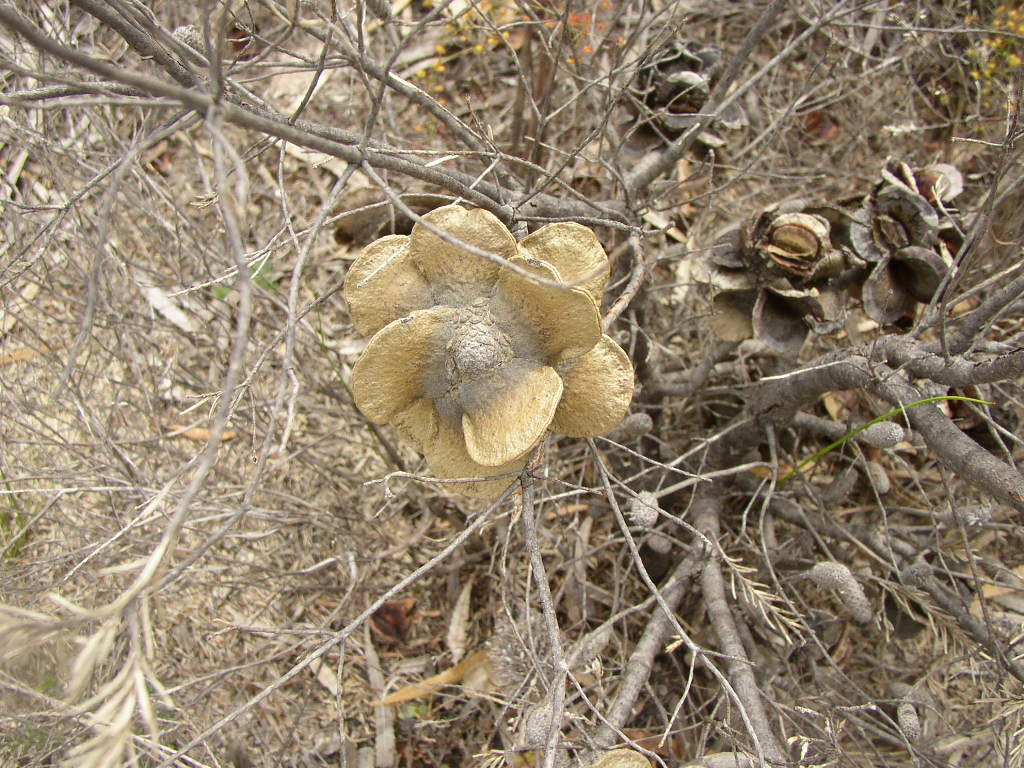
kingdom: Plantae
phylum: Tracheophyta
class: Magnoliopsida
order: Proteales
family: Proteaceae
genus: Banksia
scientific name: Banksia laricina
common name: Rose banksia
